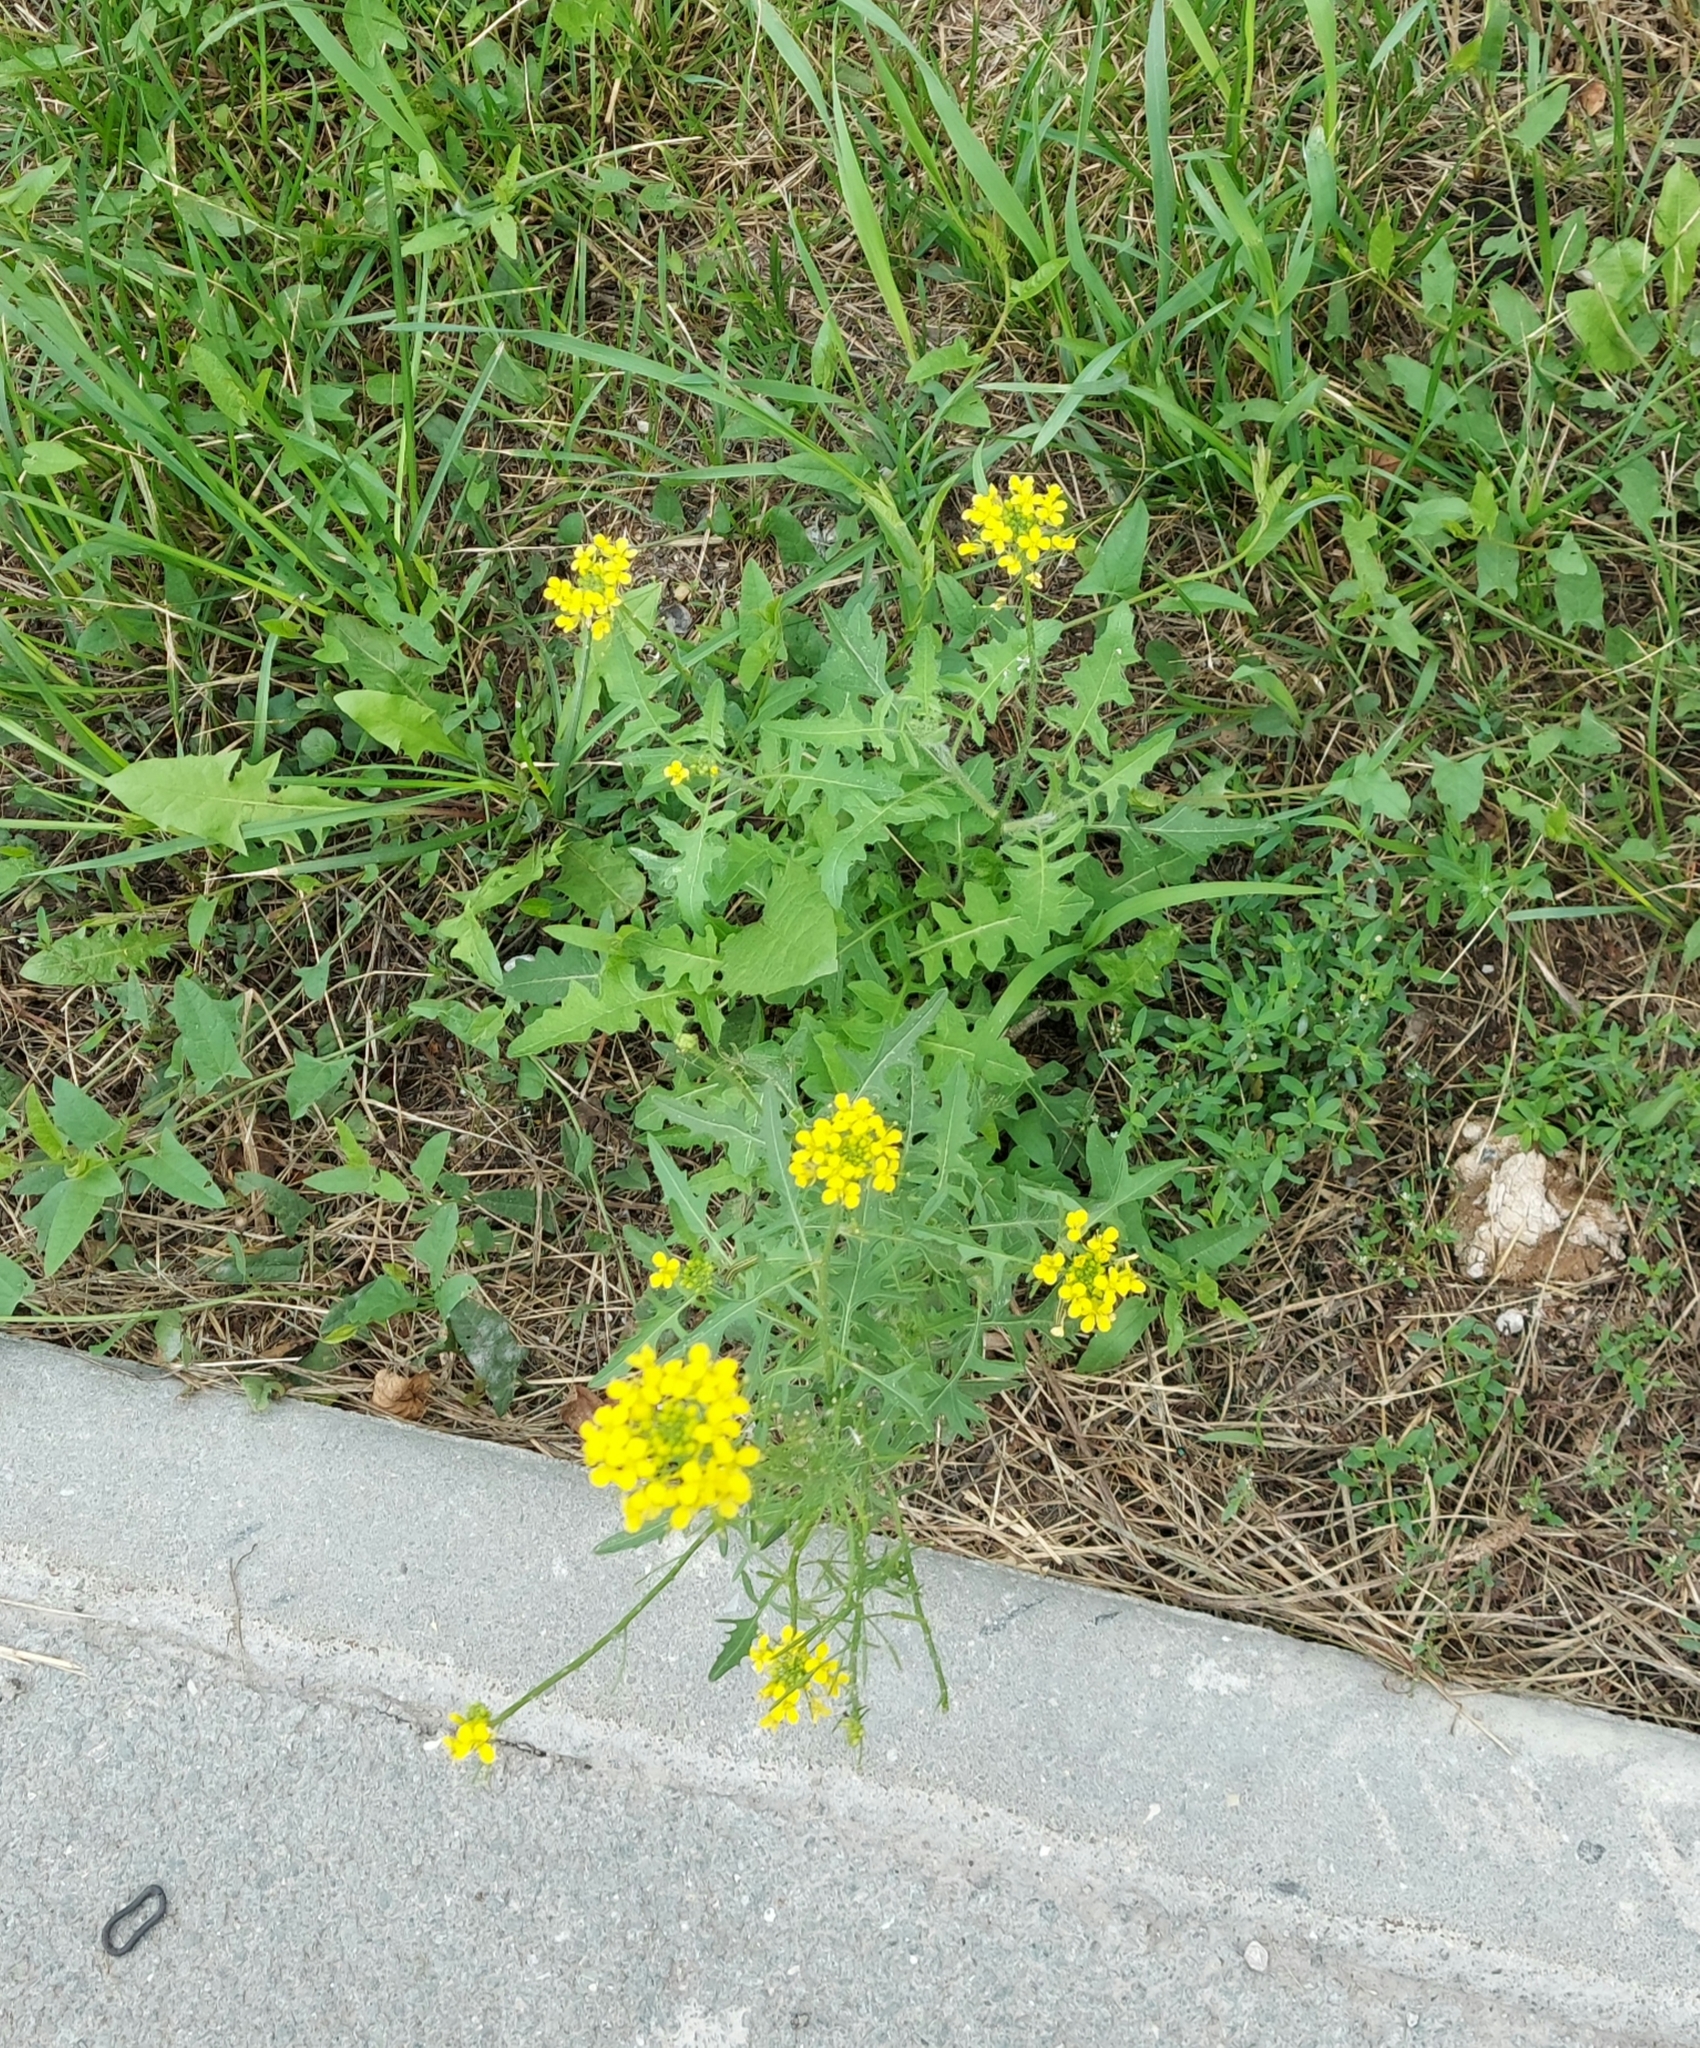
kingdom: Plantae
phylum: Tracheophyta
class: Magnoliopsida
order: Brassicales
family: Brassicaceae
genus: Sisymbrium
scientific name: Sisymbrium loeselii
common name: False london-rocket
